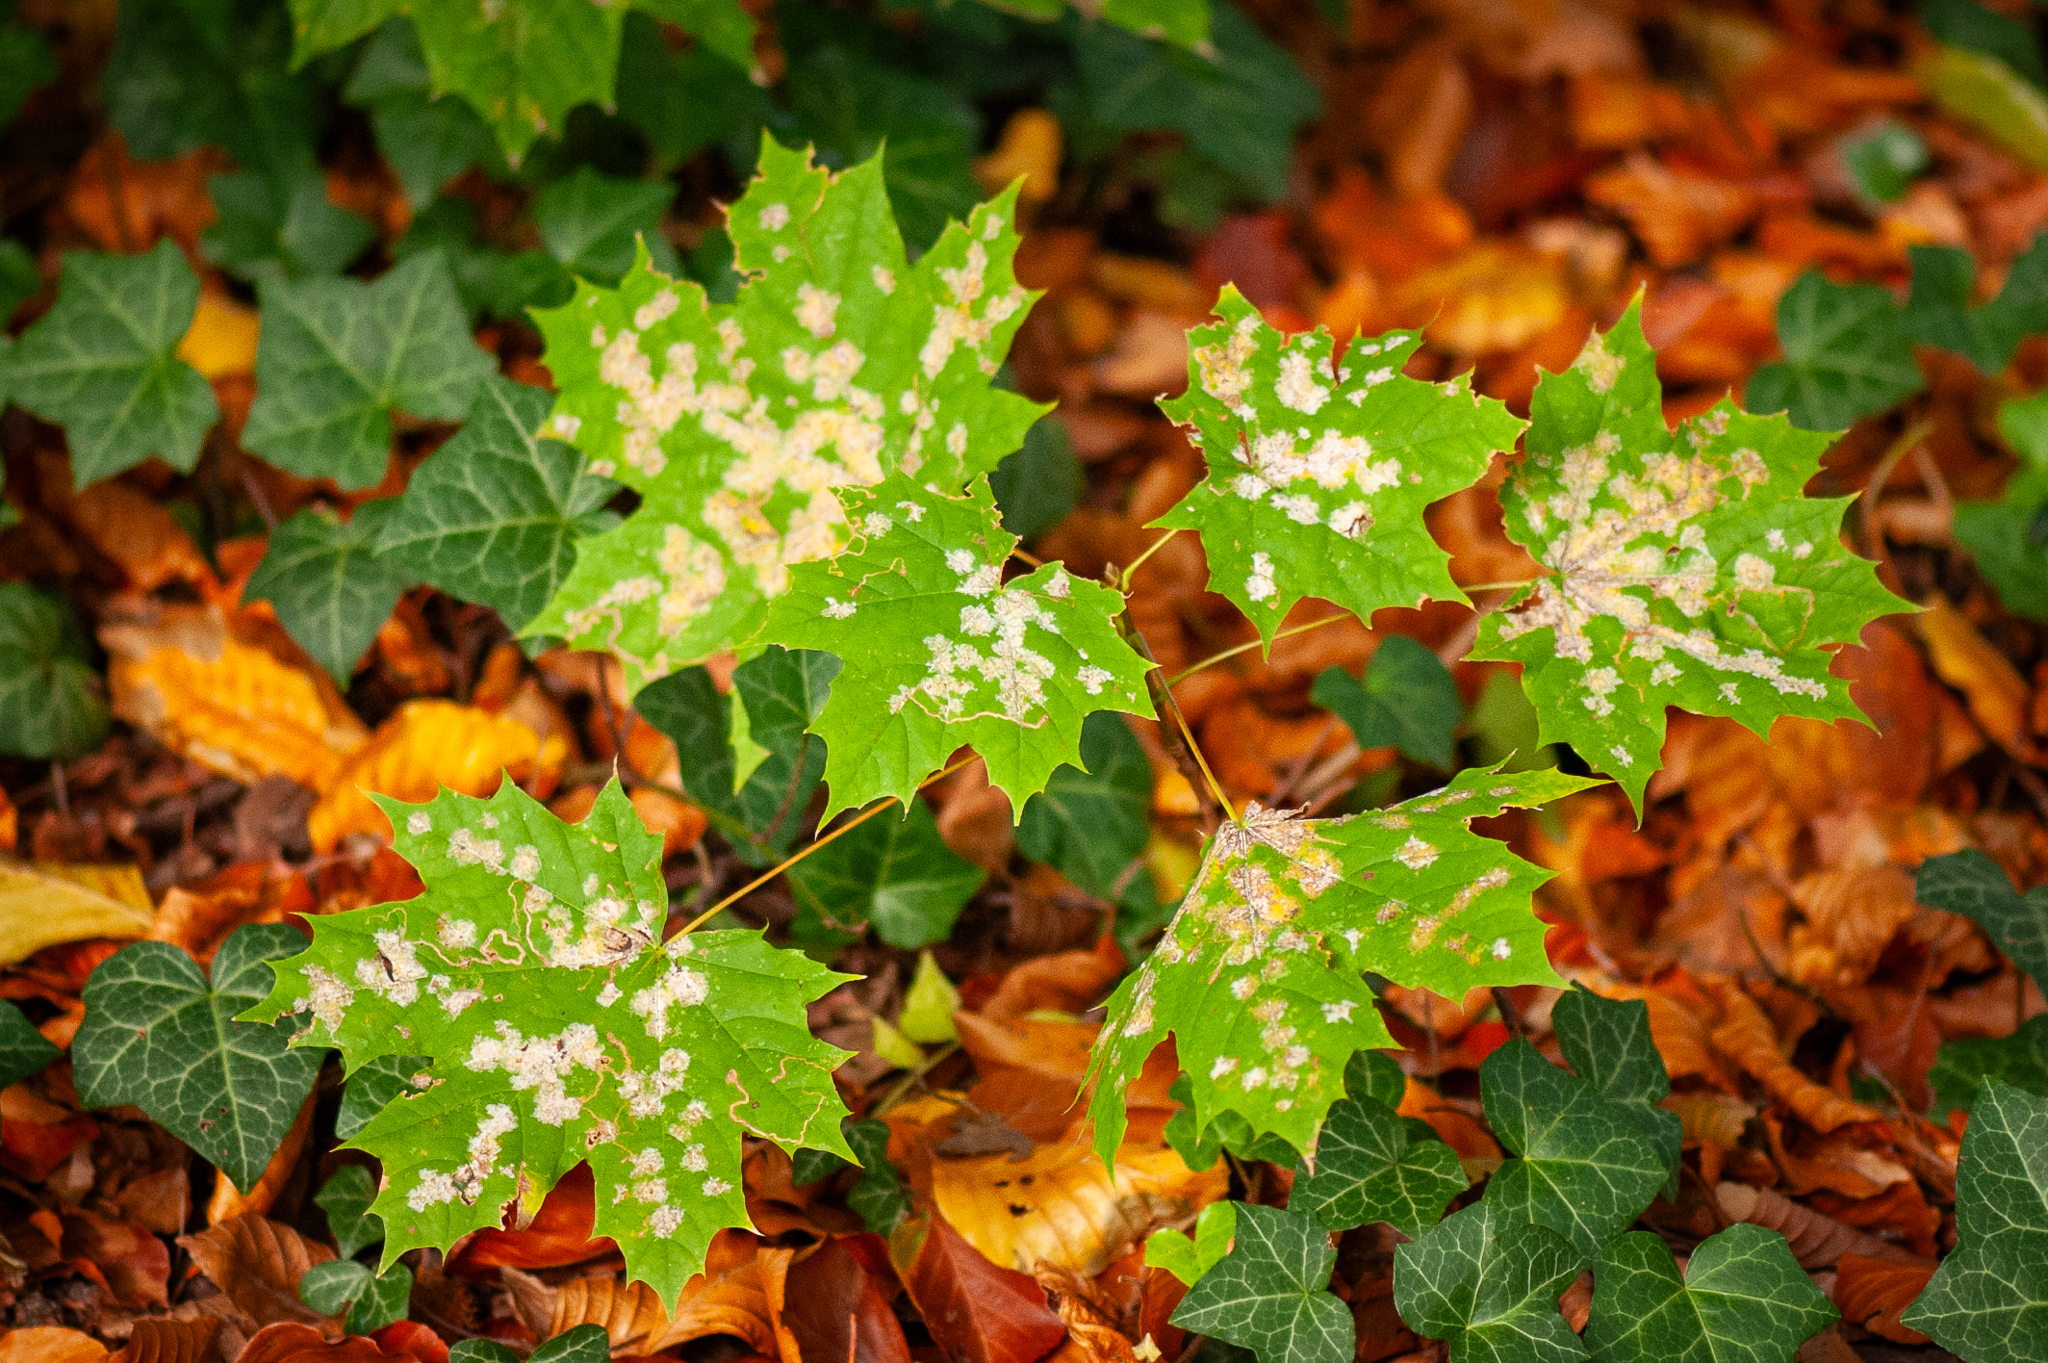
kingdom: Plantae
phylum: Tracheophyta
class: Magnoliopsida
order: Sapindales
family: Sapindaceae
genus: Acer
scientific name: Acer platanoides
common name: Norway maple
